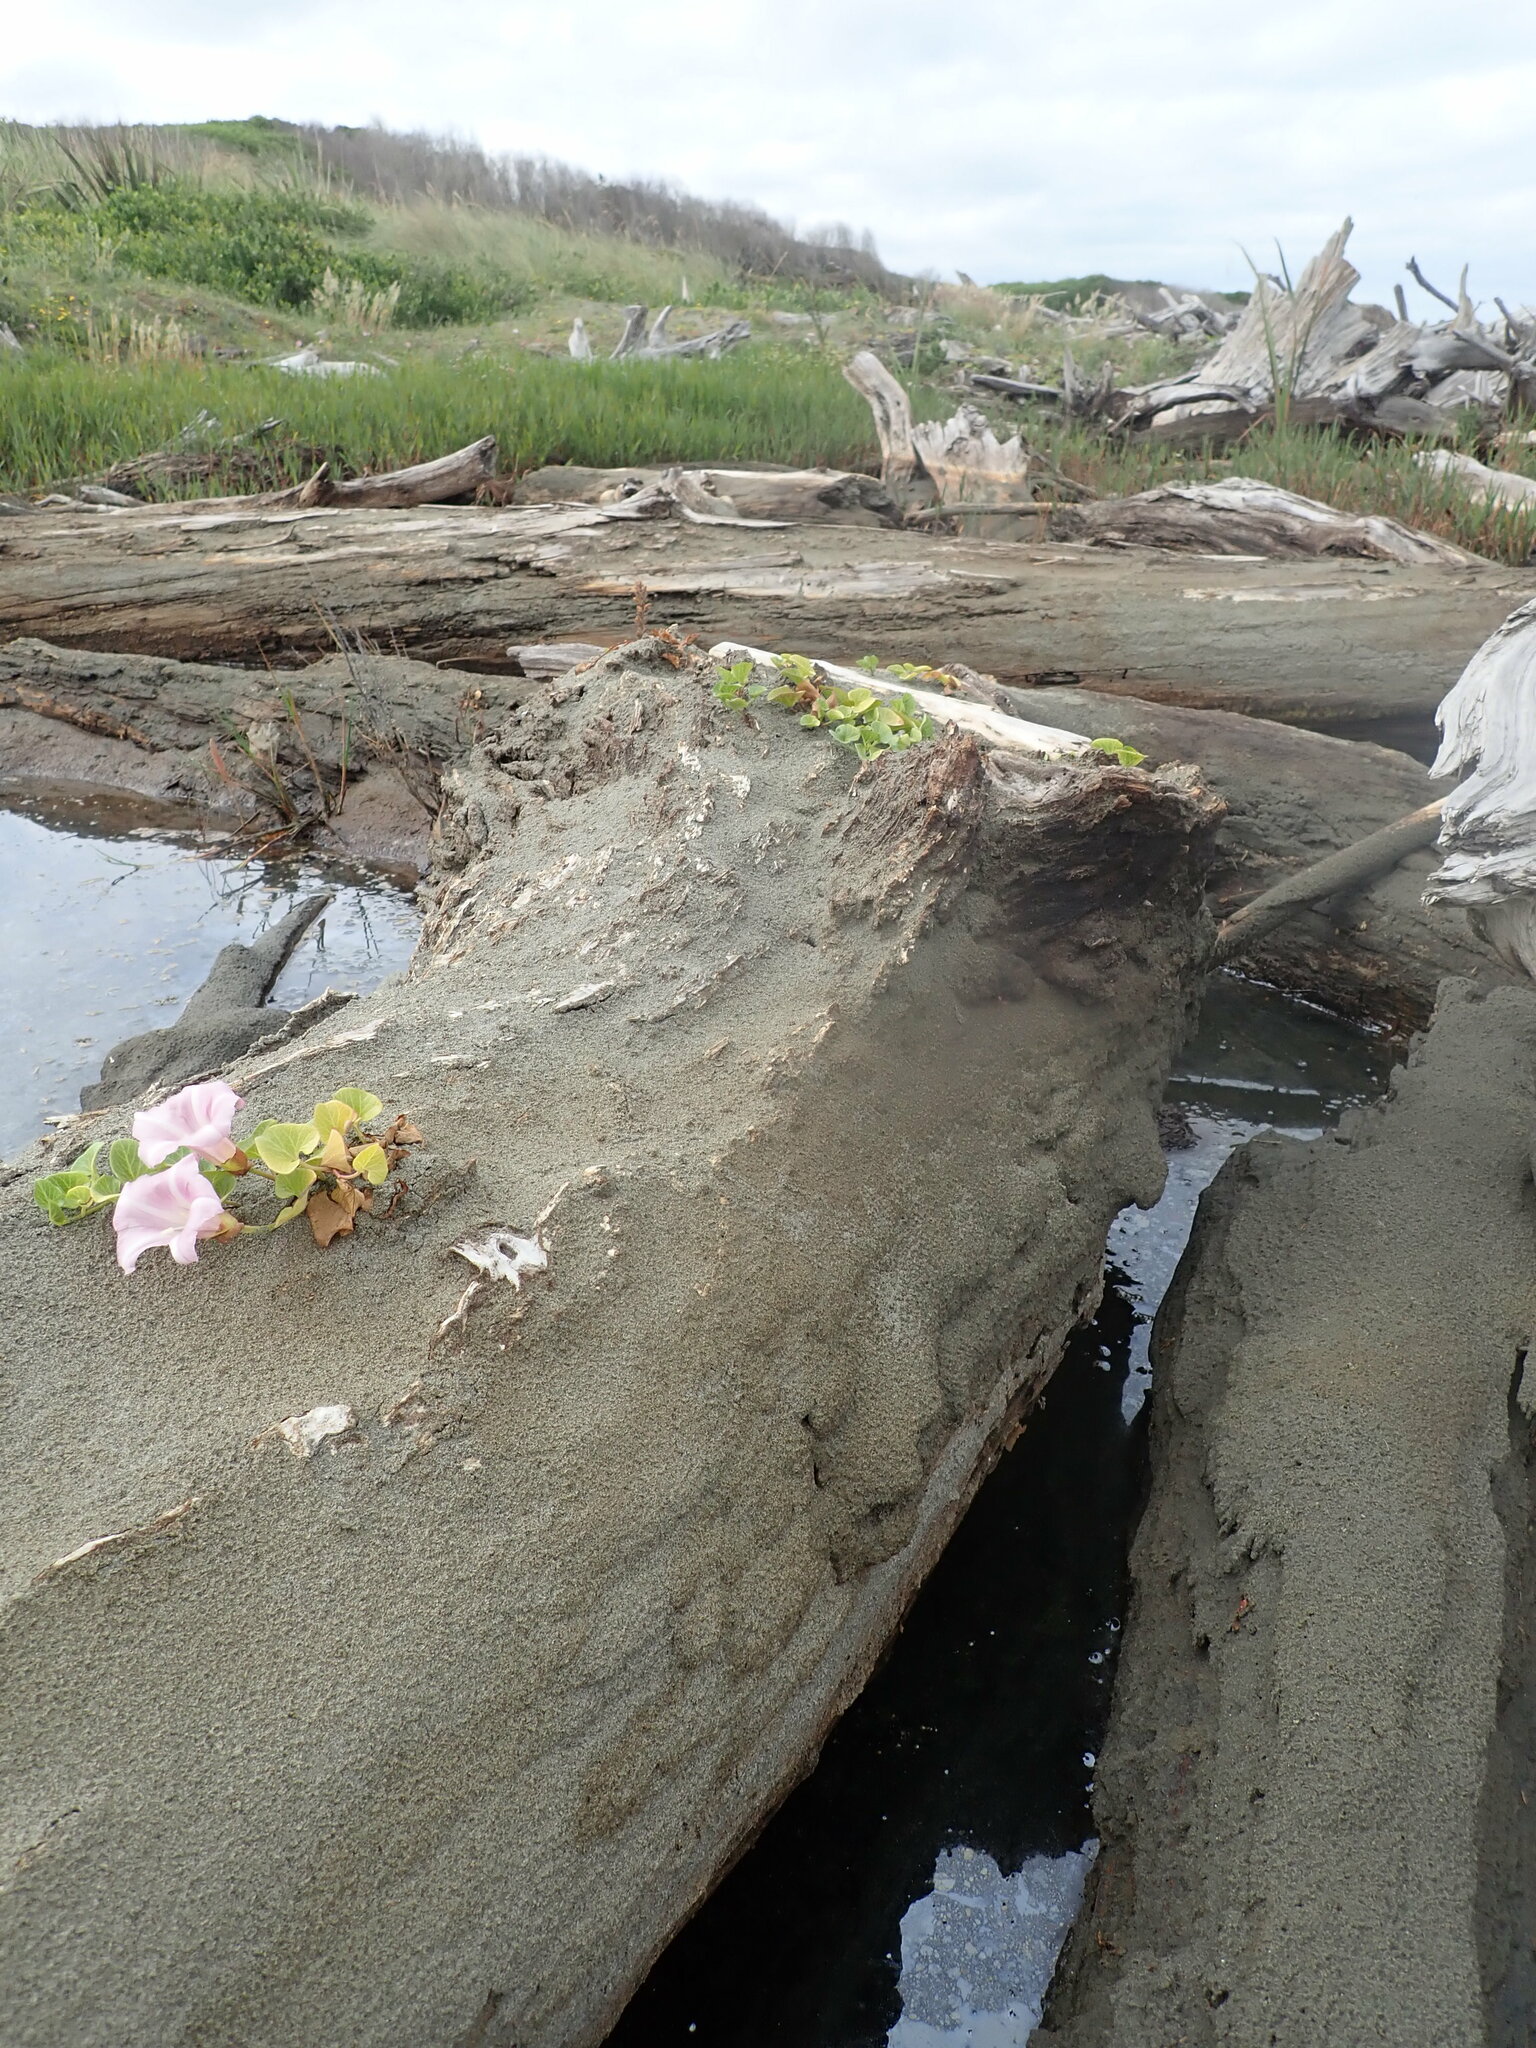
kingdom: Plantae
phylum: Tracheophyta
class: Magnoliopsida
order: Solanales
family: Convolvulaceae
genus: Calystegia
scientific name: Calystegia soldanella
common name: Sea bindweed
